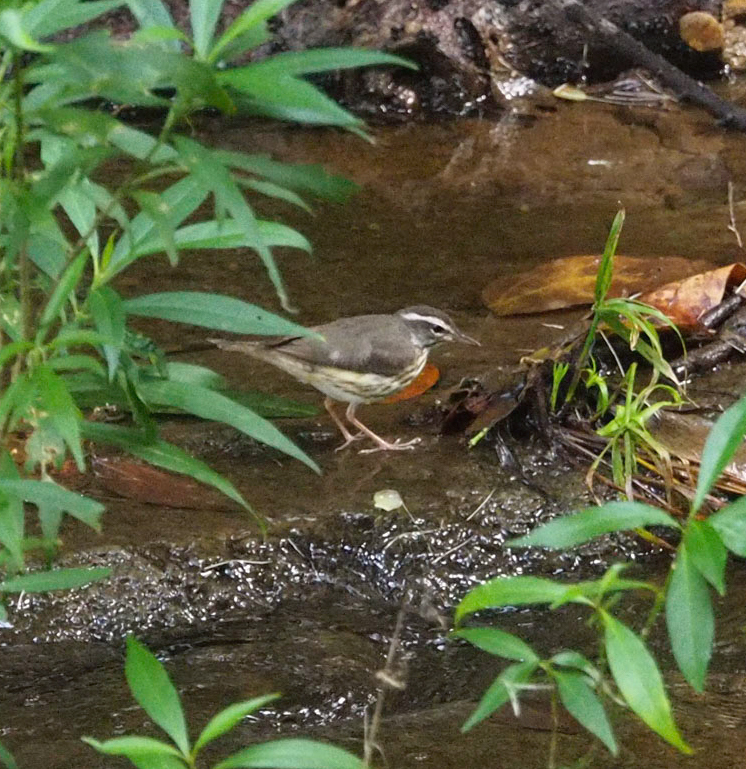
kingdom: Animalia
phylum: Chordata
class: Aves
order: Passeriformes
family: Parulidae
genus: Parkesia
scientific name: Parkesia motacilla
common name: Louisiana waterthrush
